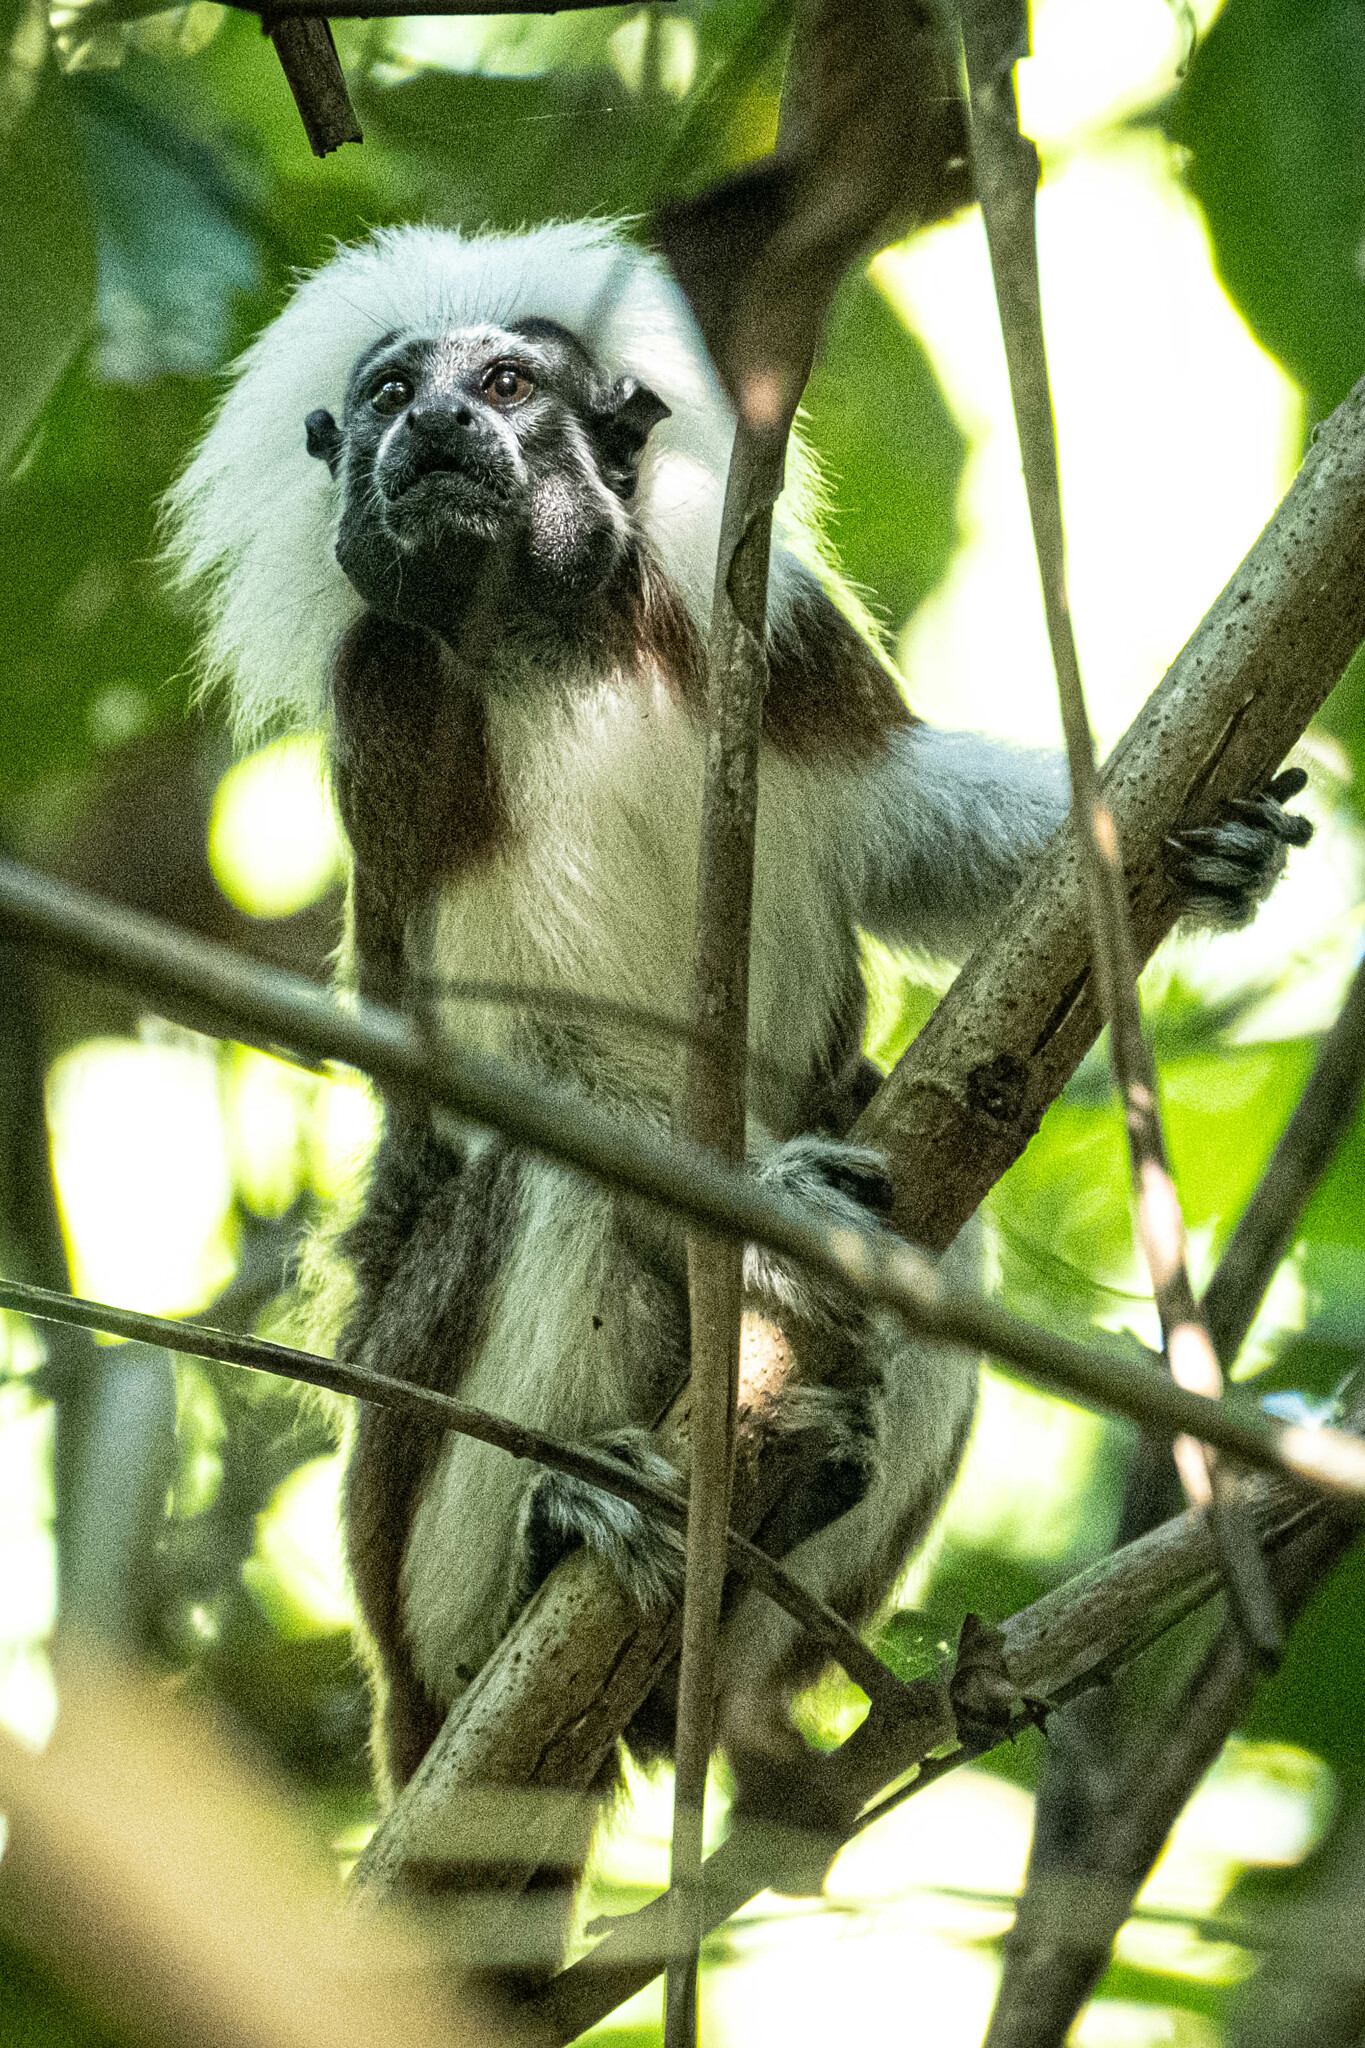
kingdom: Animalia
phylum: Chordata
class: Mammalia
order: Primates
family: Callitrichidae
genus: Saguinus
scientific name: Saguinus oedipus
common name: Cottontop tamarin
